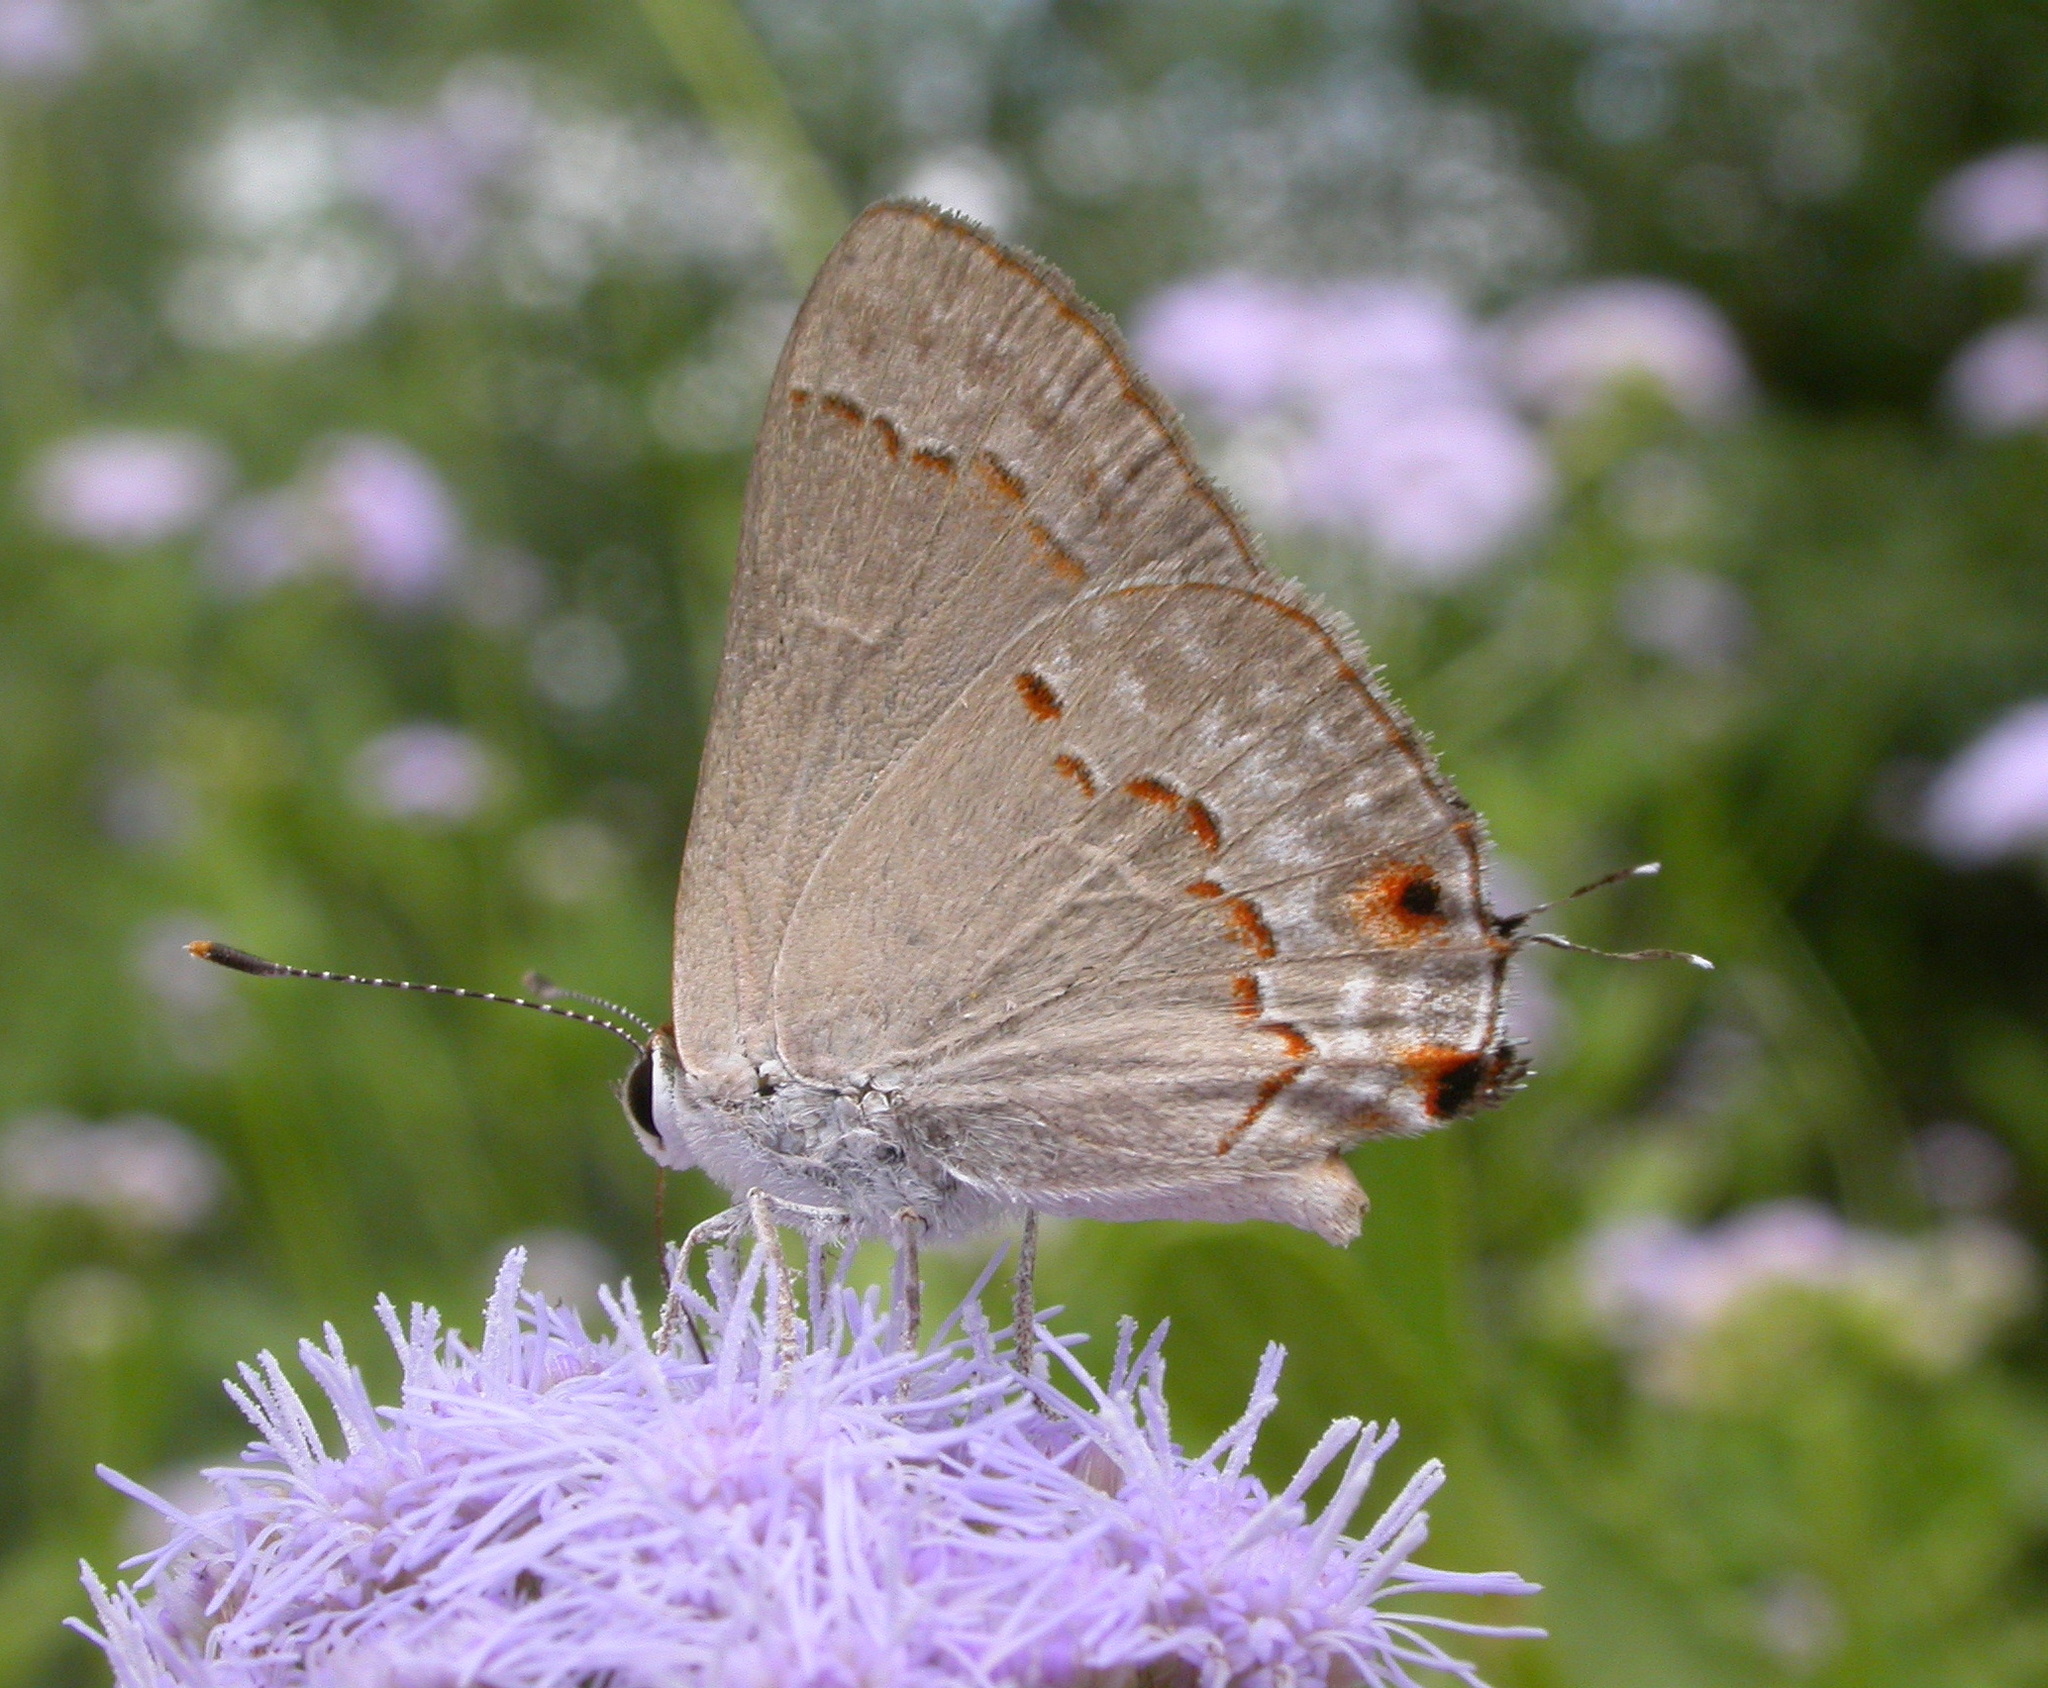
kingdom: Animalia
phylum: Arthropoda
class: Insecta
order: Lepidoptera
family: Lycaenidae
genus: Thecla
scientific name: Thecla rufofusca
